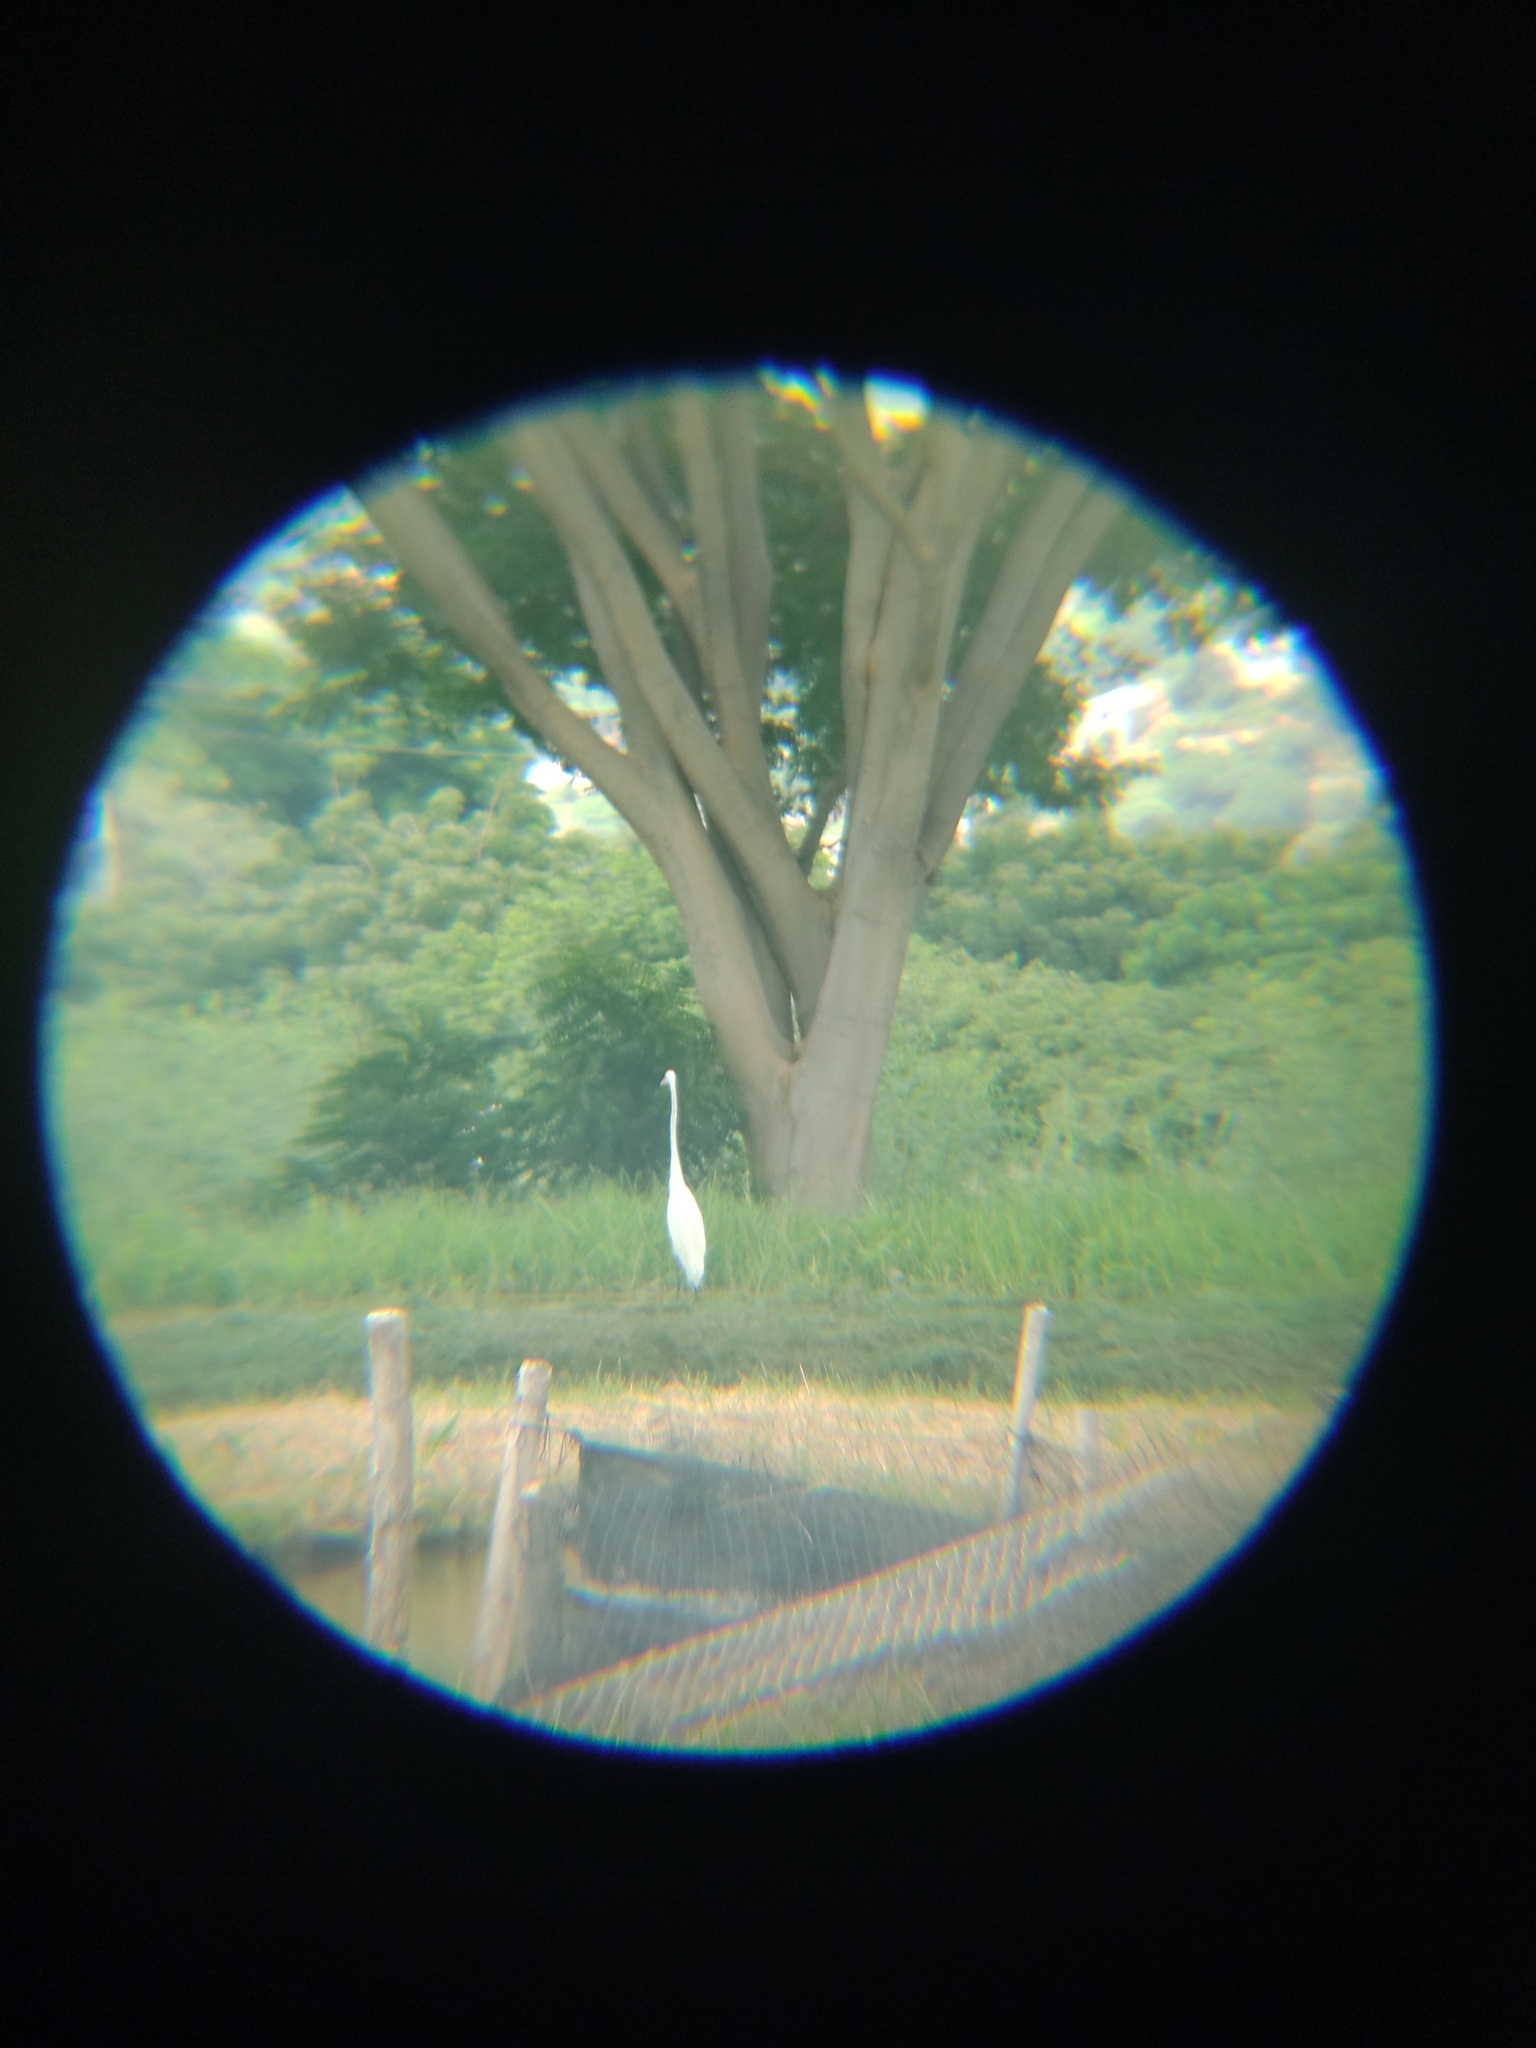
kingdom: Animalia
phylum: Chordata
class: Aves
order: Pelecaniformes
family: Ardeidae
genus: Ardea
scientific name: Ardea alba
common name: Great egret
